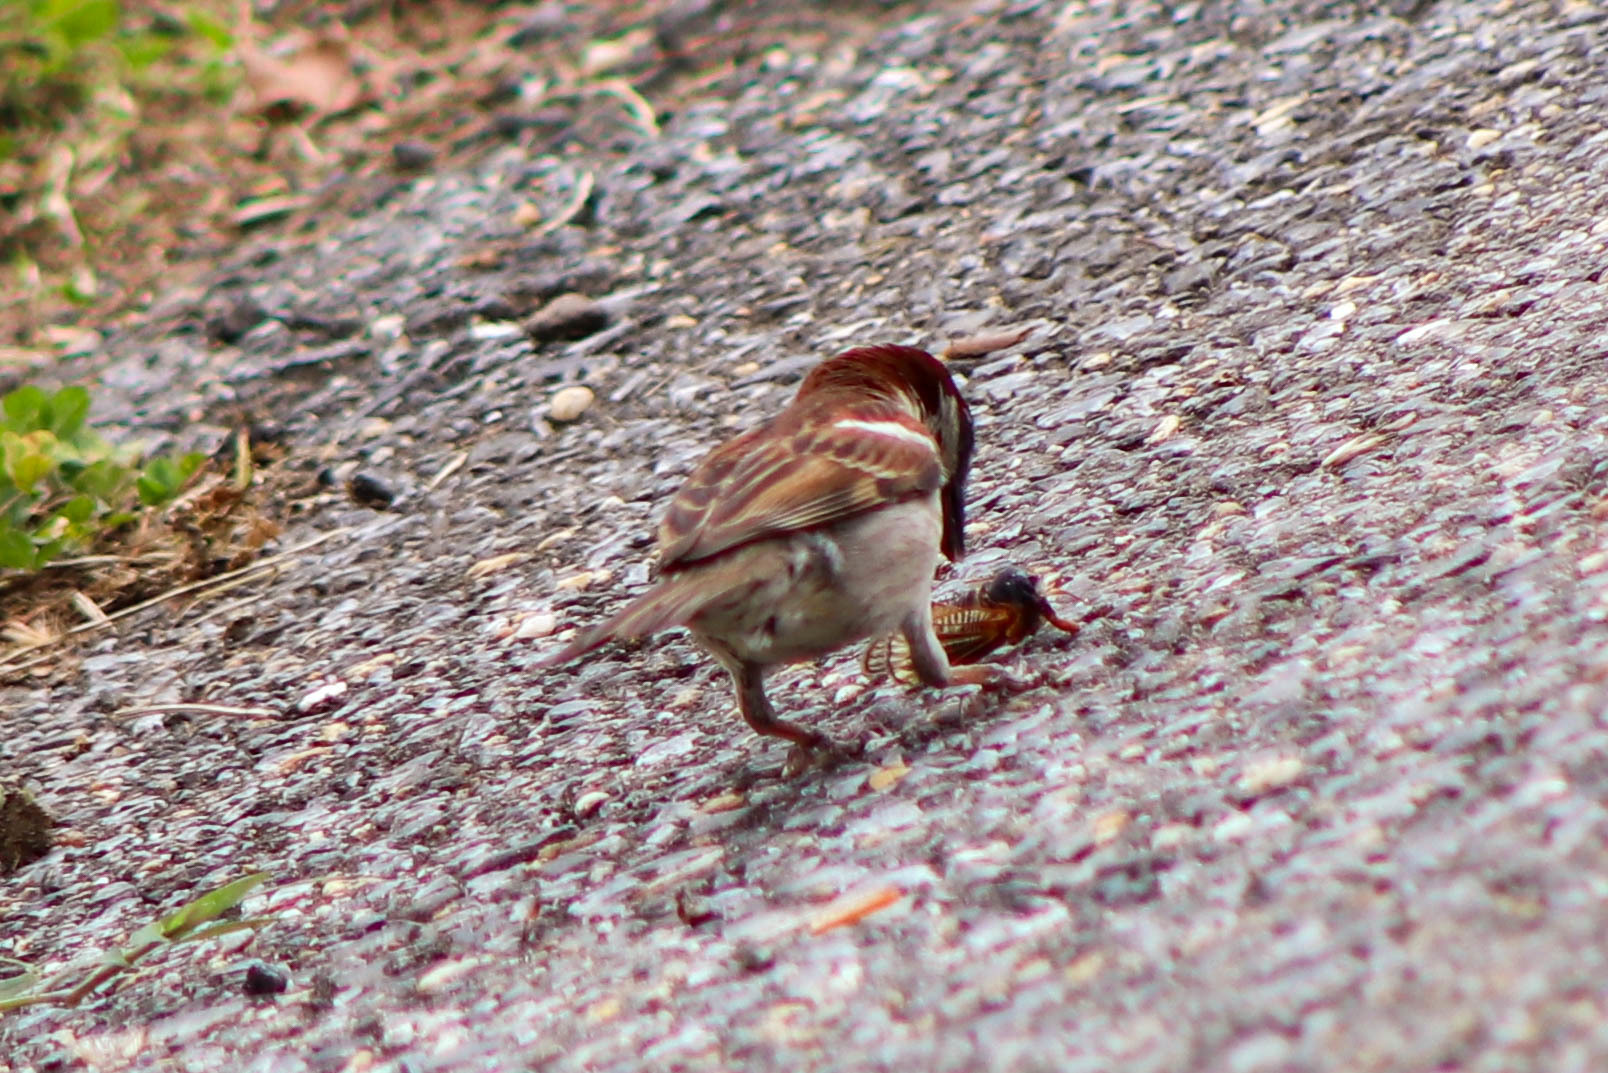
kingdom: Animalia
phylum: Chordata
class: Aves
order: Passeriformes
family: Passeridae
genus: Passer
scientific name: Passer domesticus
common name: House sparrow
